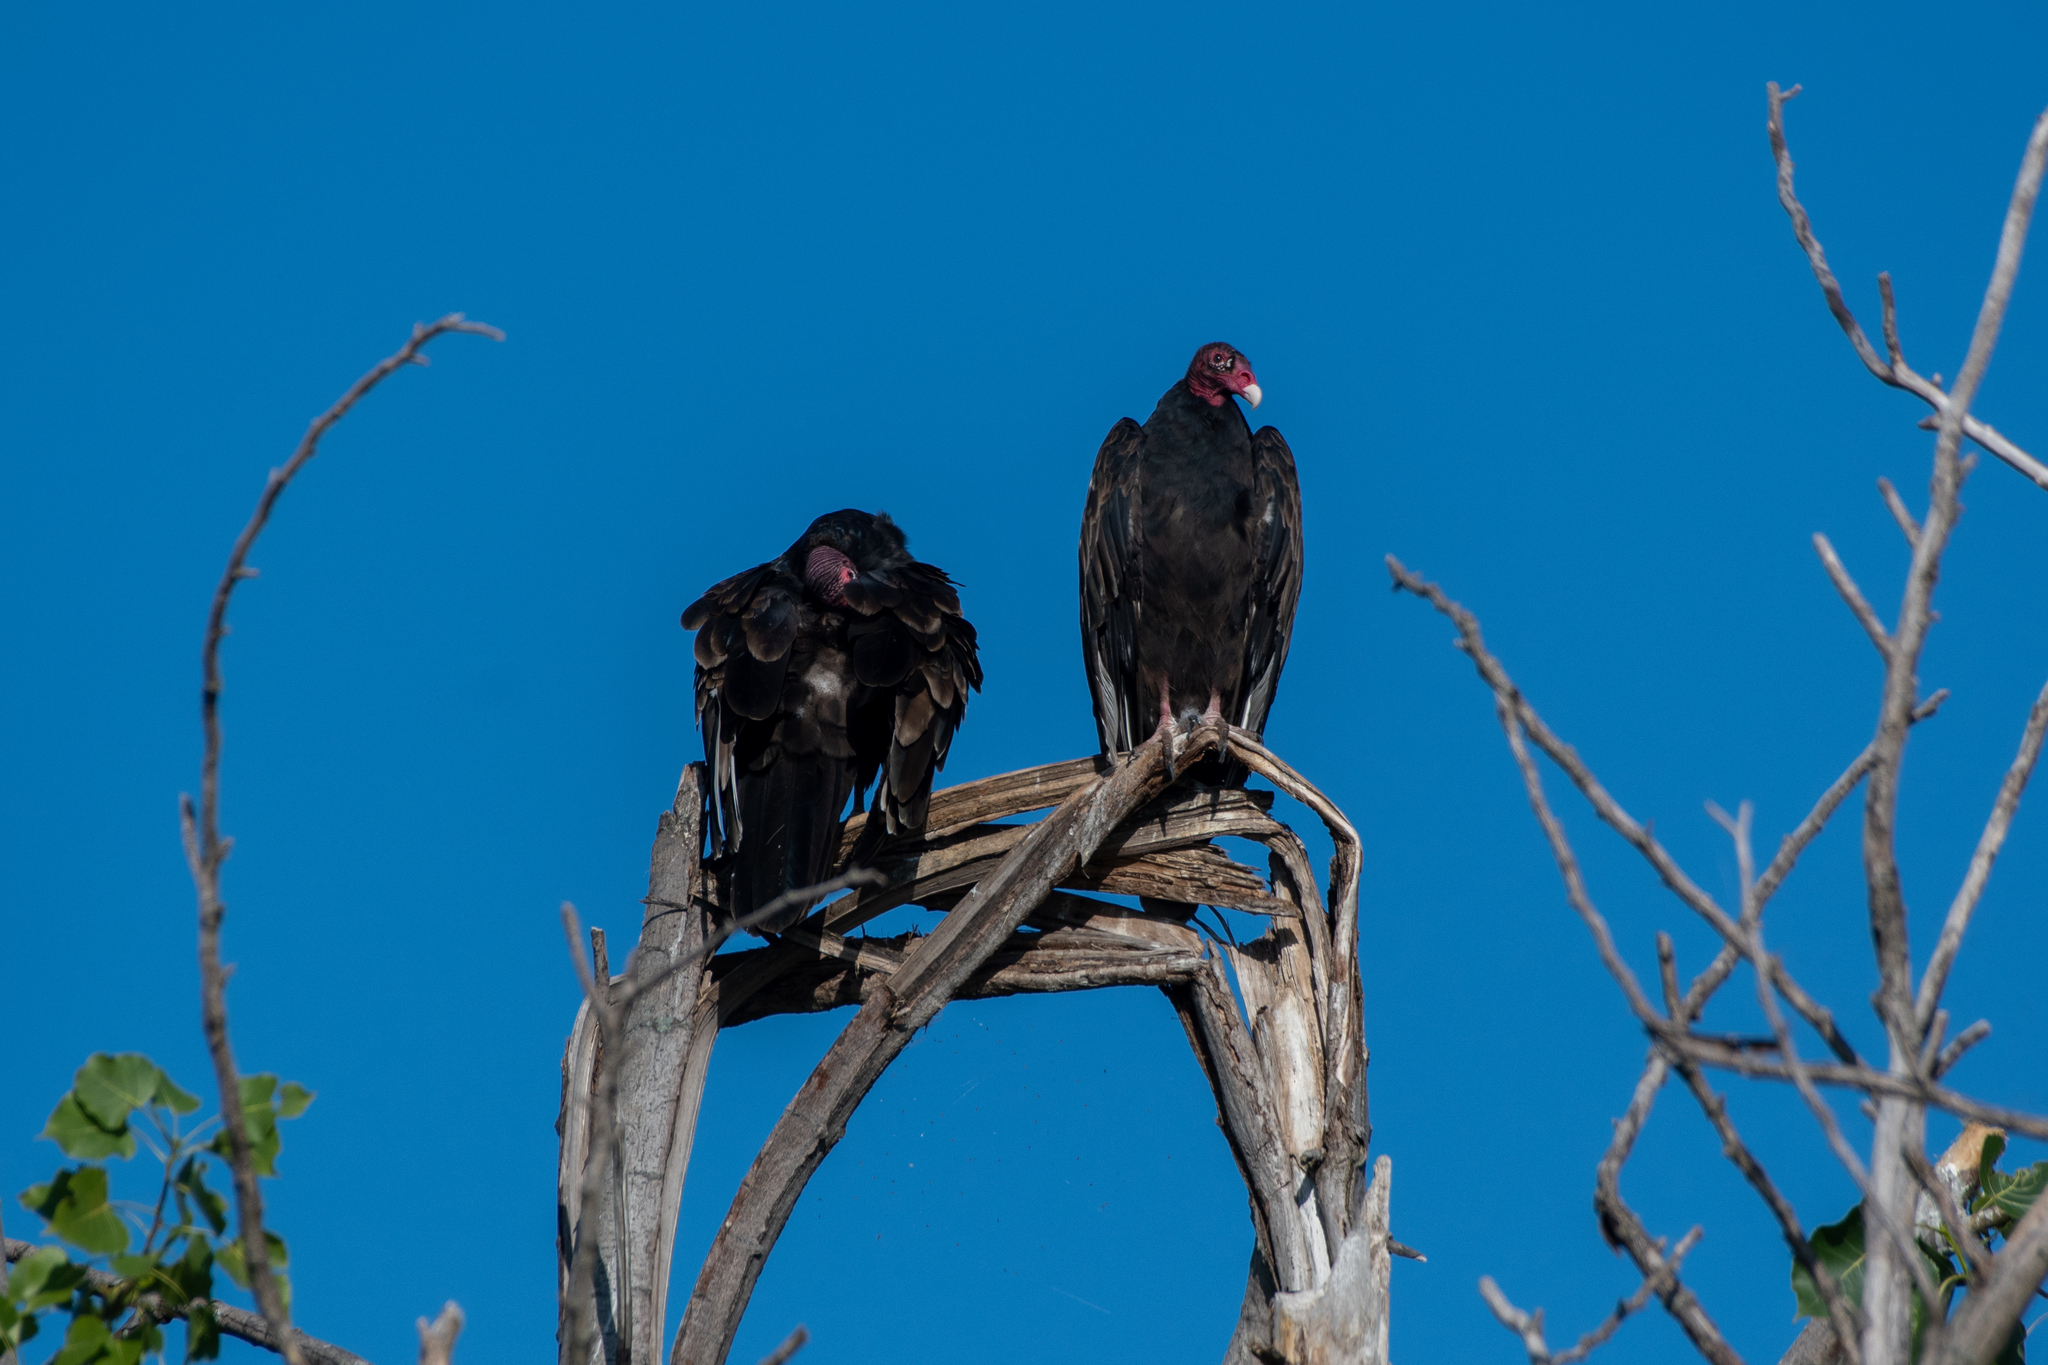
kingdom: Animalia
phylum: Chordata
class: Aves
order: Accipitriformes
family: Cathartidae
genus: Cathartes
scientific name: Cathartes aura
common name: Turkey vulture
